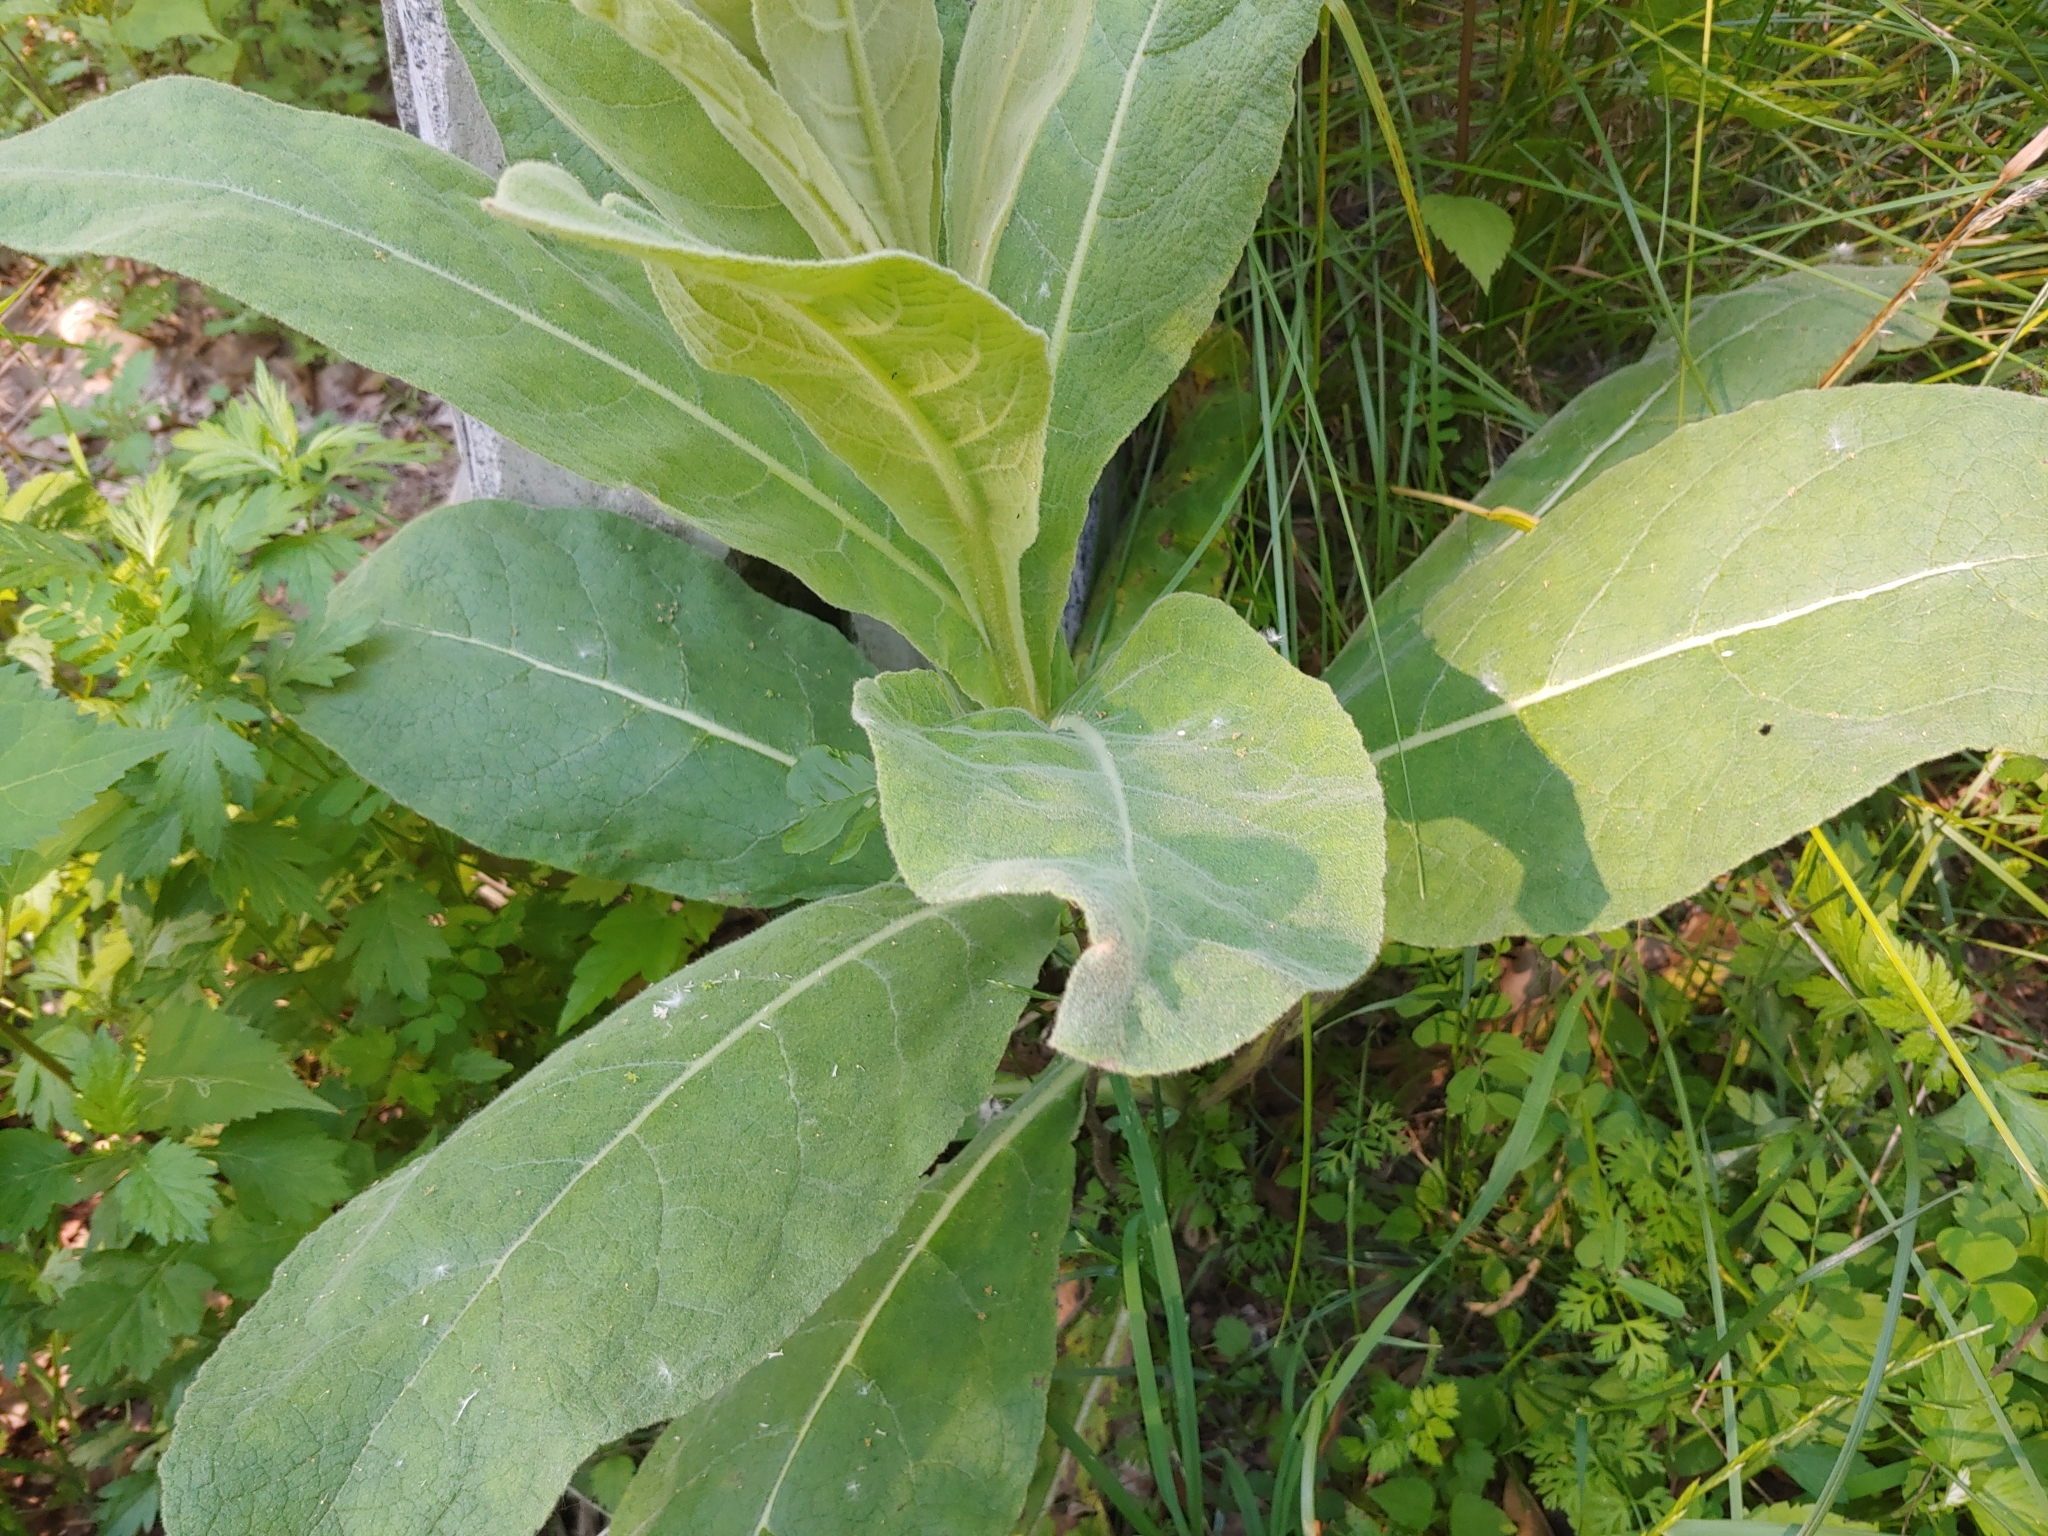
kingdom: Plantae
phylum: Tracheophyta
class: Magnoliopsida
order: Lamiales
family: Scrophulariaceae
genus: Verbascum
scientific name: Verbascum thapsus
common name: Common mullein
